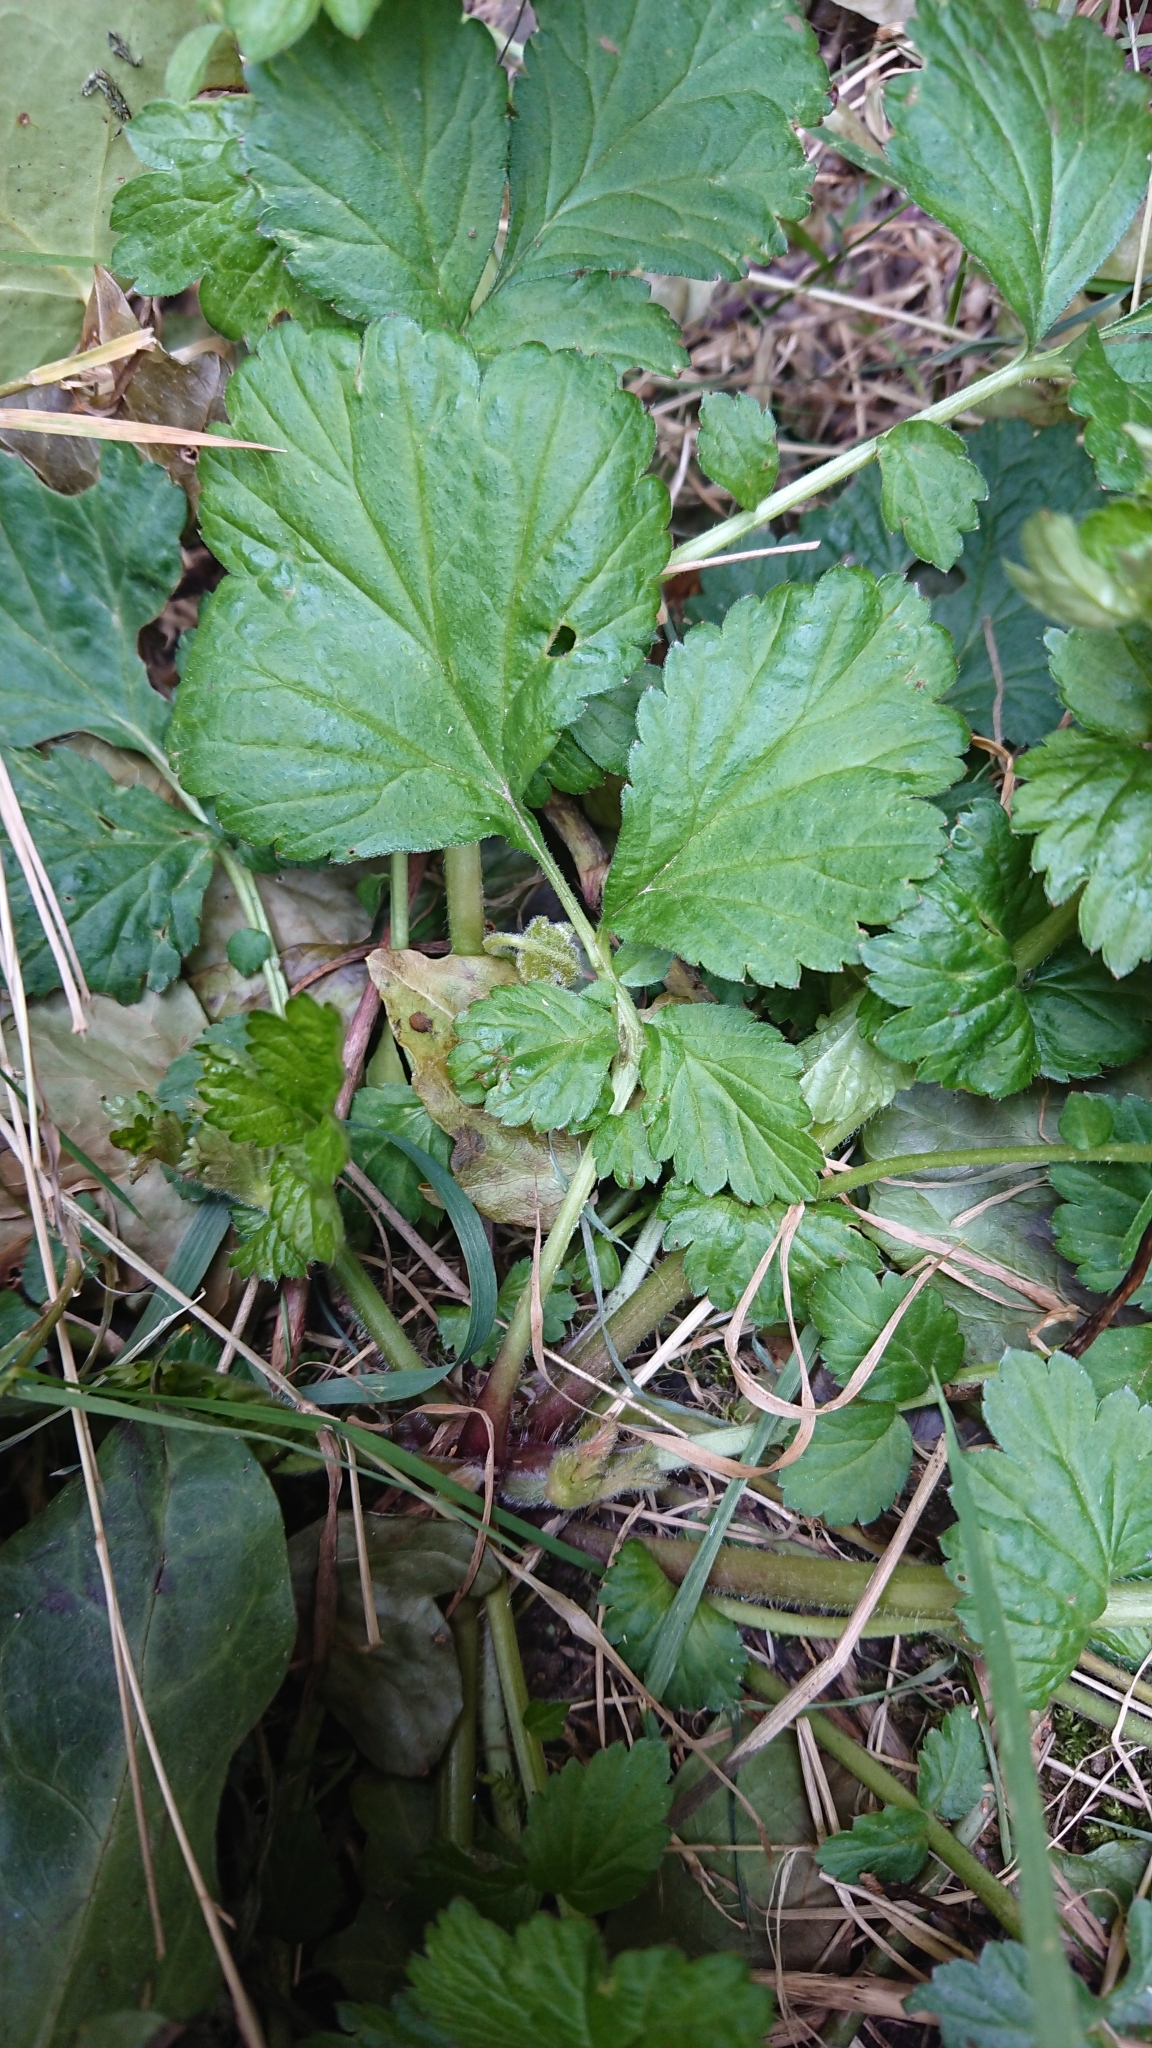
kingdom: Plantae
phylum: Tracheophyta
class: Magnoliopsida
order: Rosales
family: Rosaceae
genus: Geum
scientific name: Geum urbanum
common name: Wood avens
